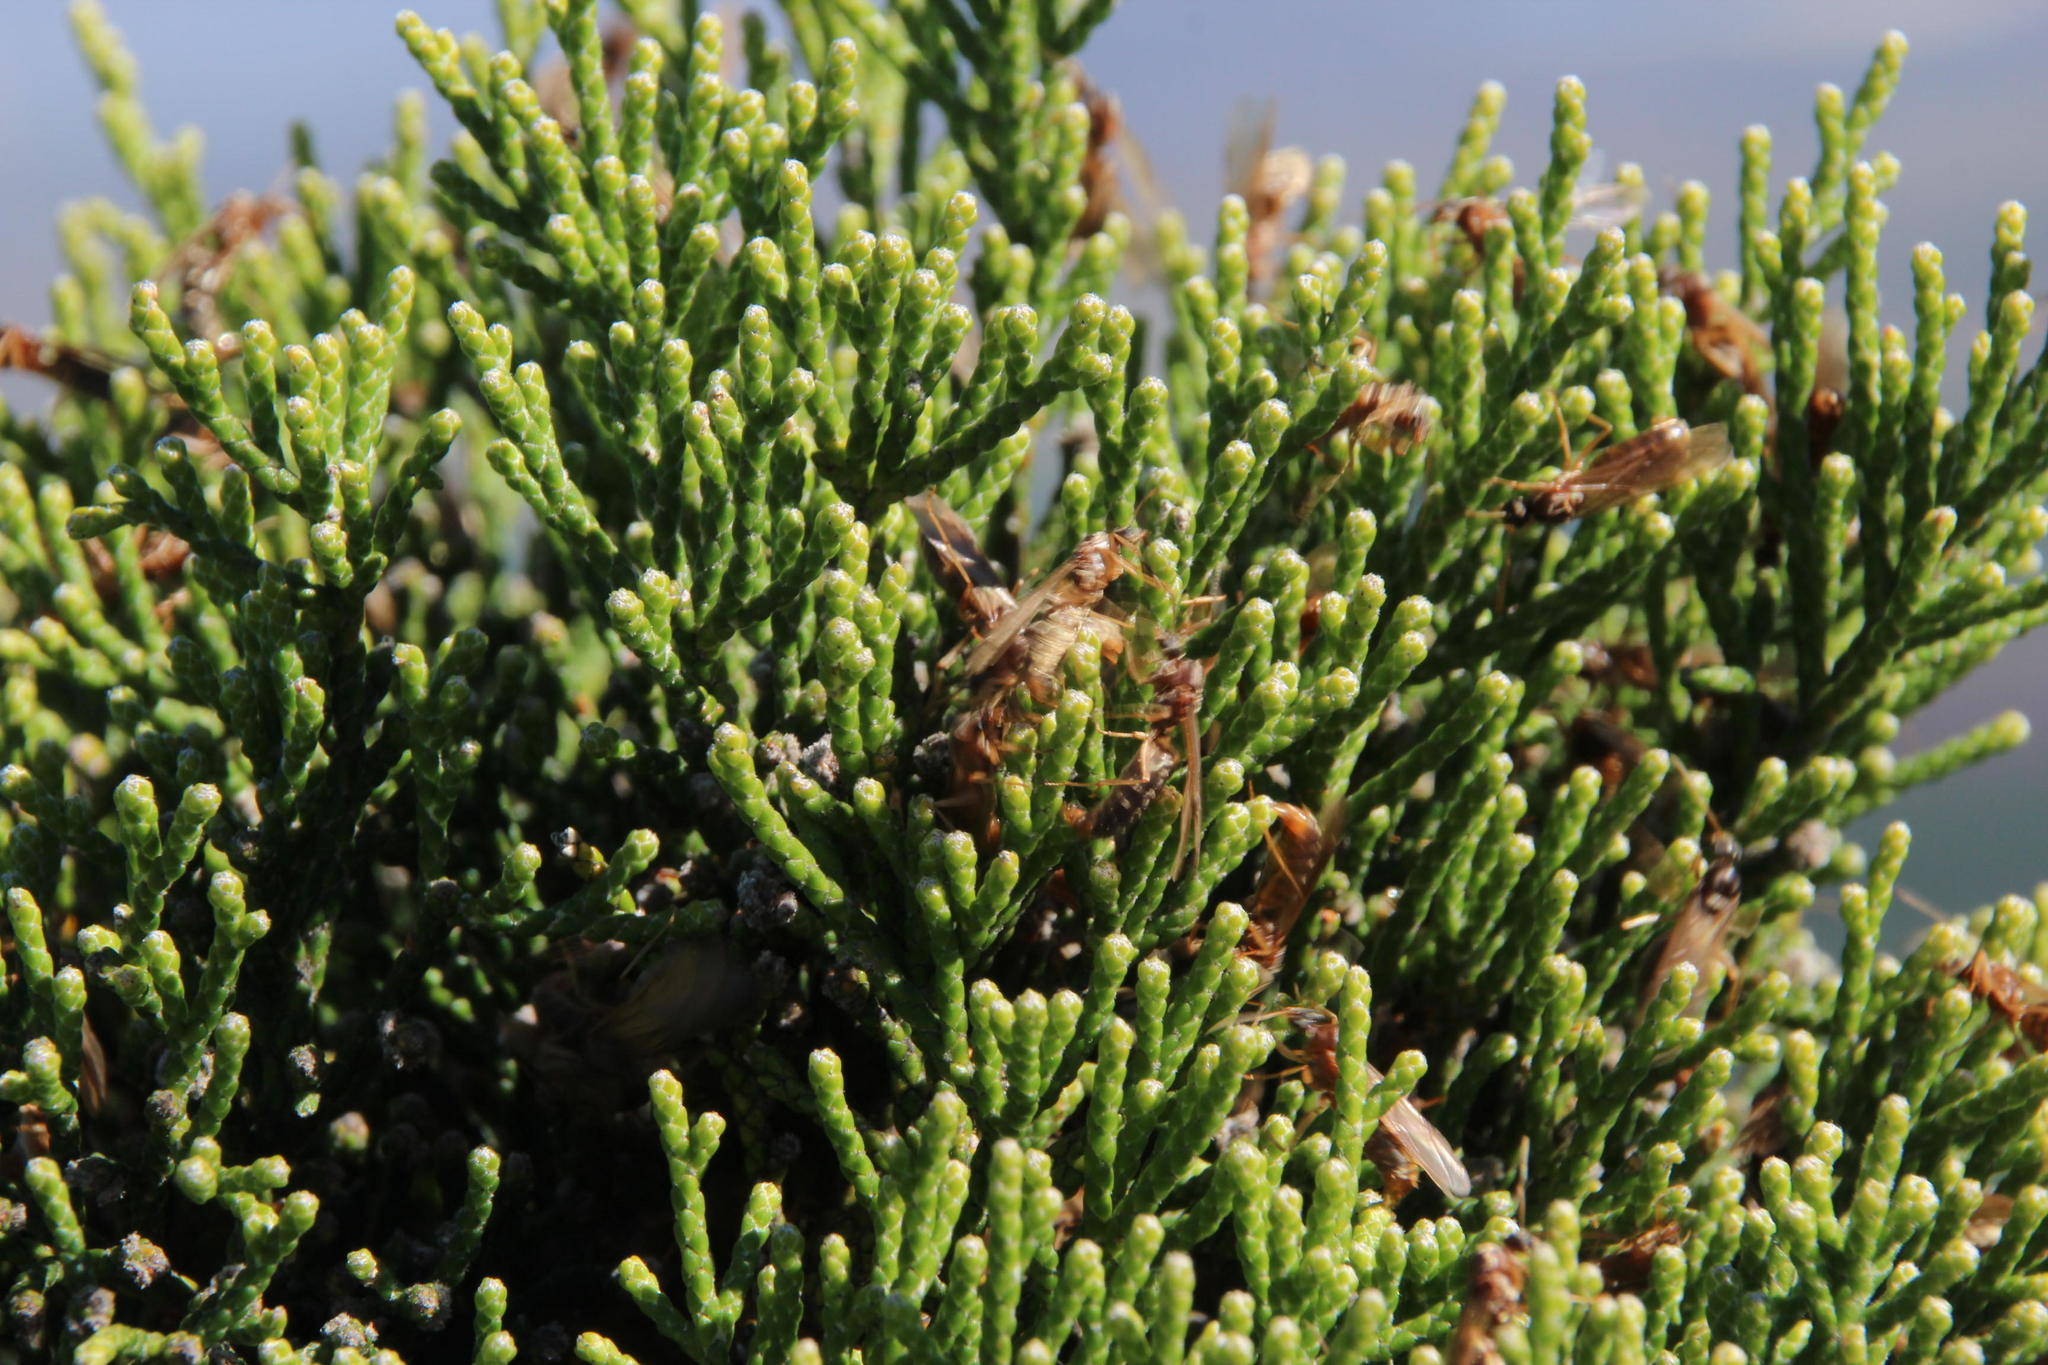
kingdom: Plantae
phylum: Tracheophyta
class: Magnoliopsida
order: Bruniales
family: Bruniaceae
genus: Brunia
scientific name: Brunia microphylla
